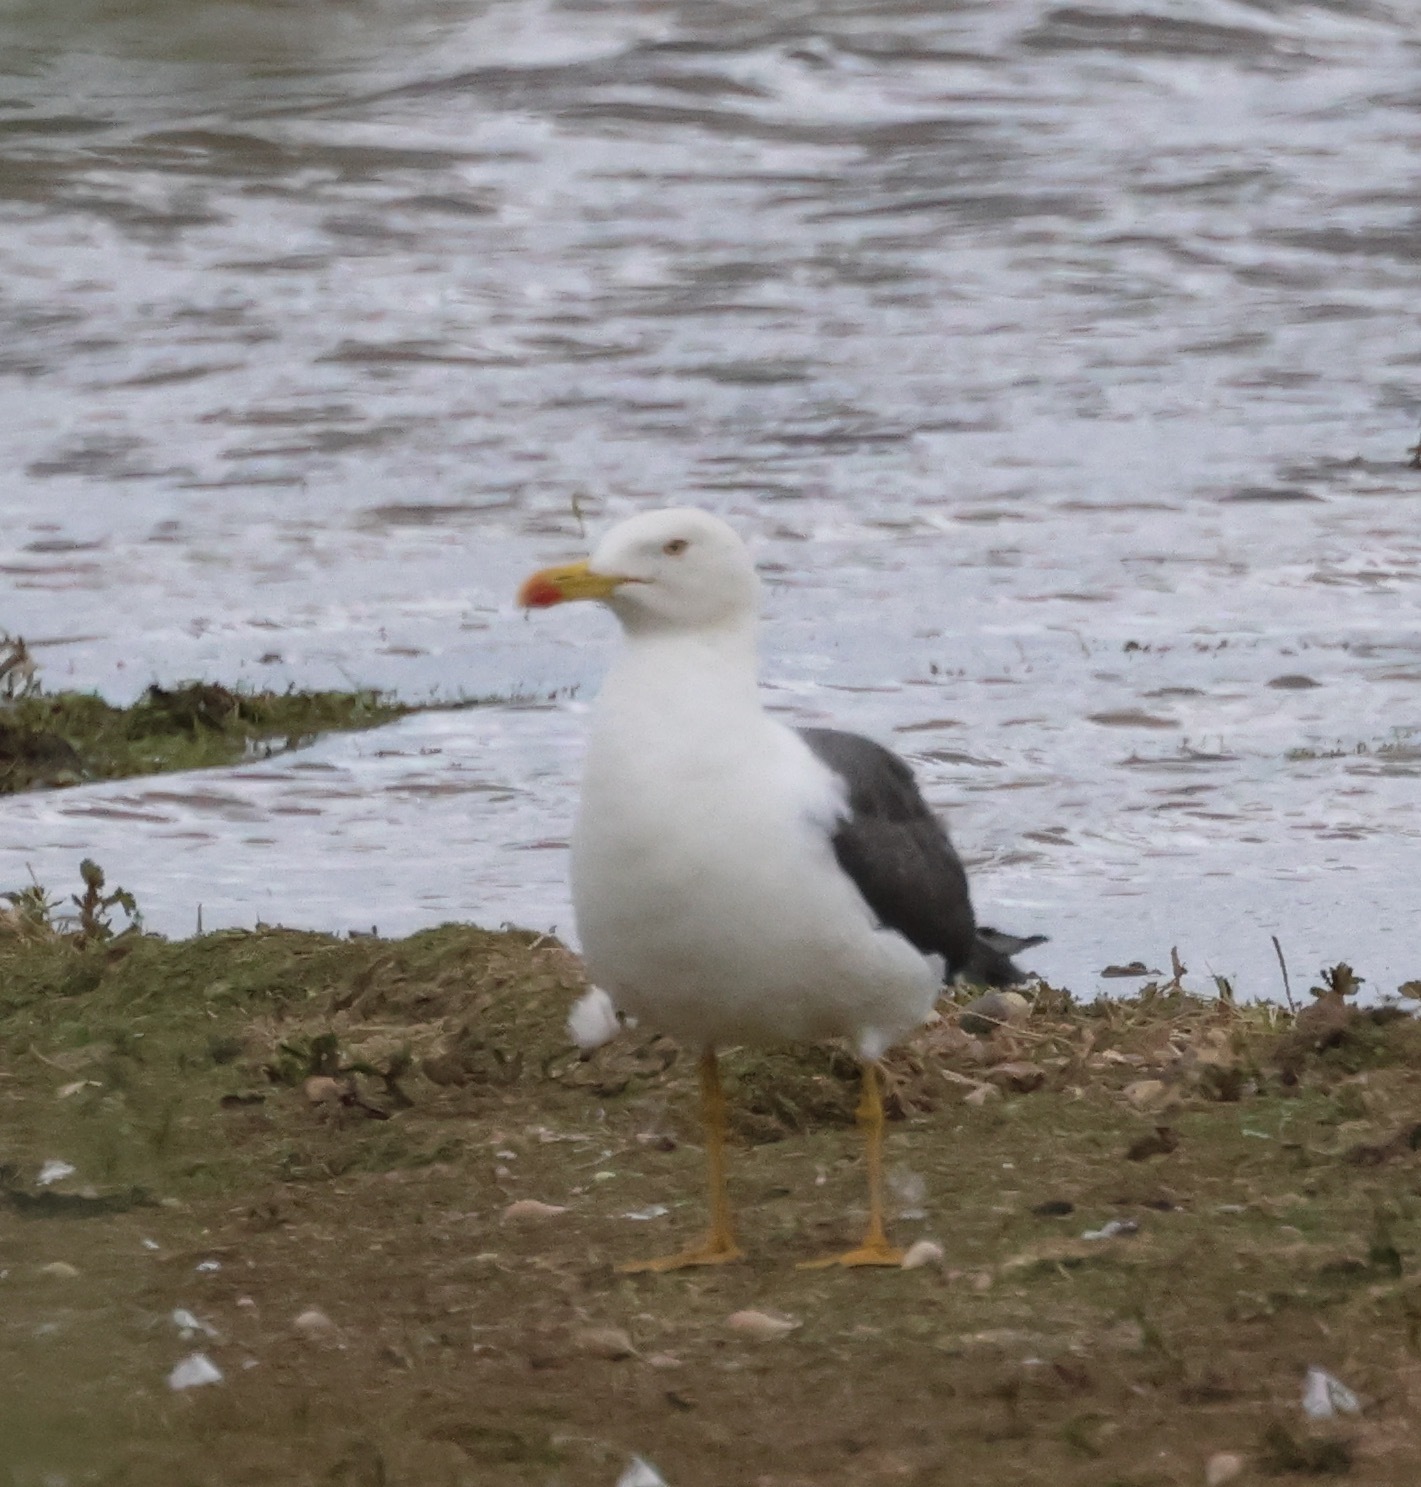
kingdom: Animalia
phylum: Chordata
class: Aves
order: Charadriiformes
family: Laridae
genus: Larus
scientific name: Larus fuscus
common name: Lesser black-backed gull
